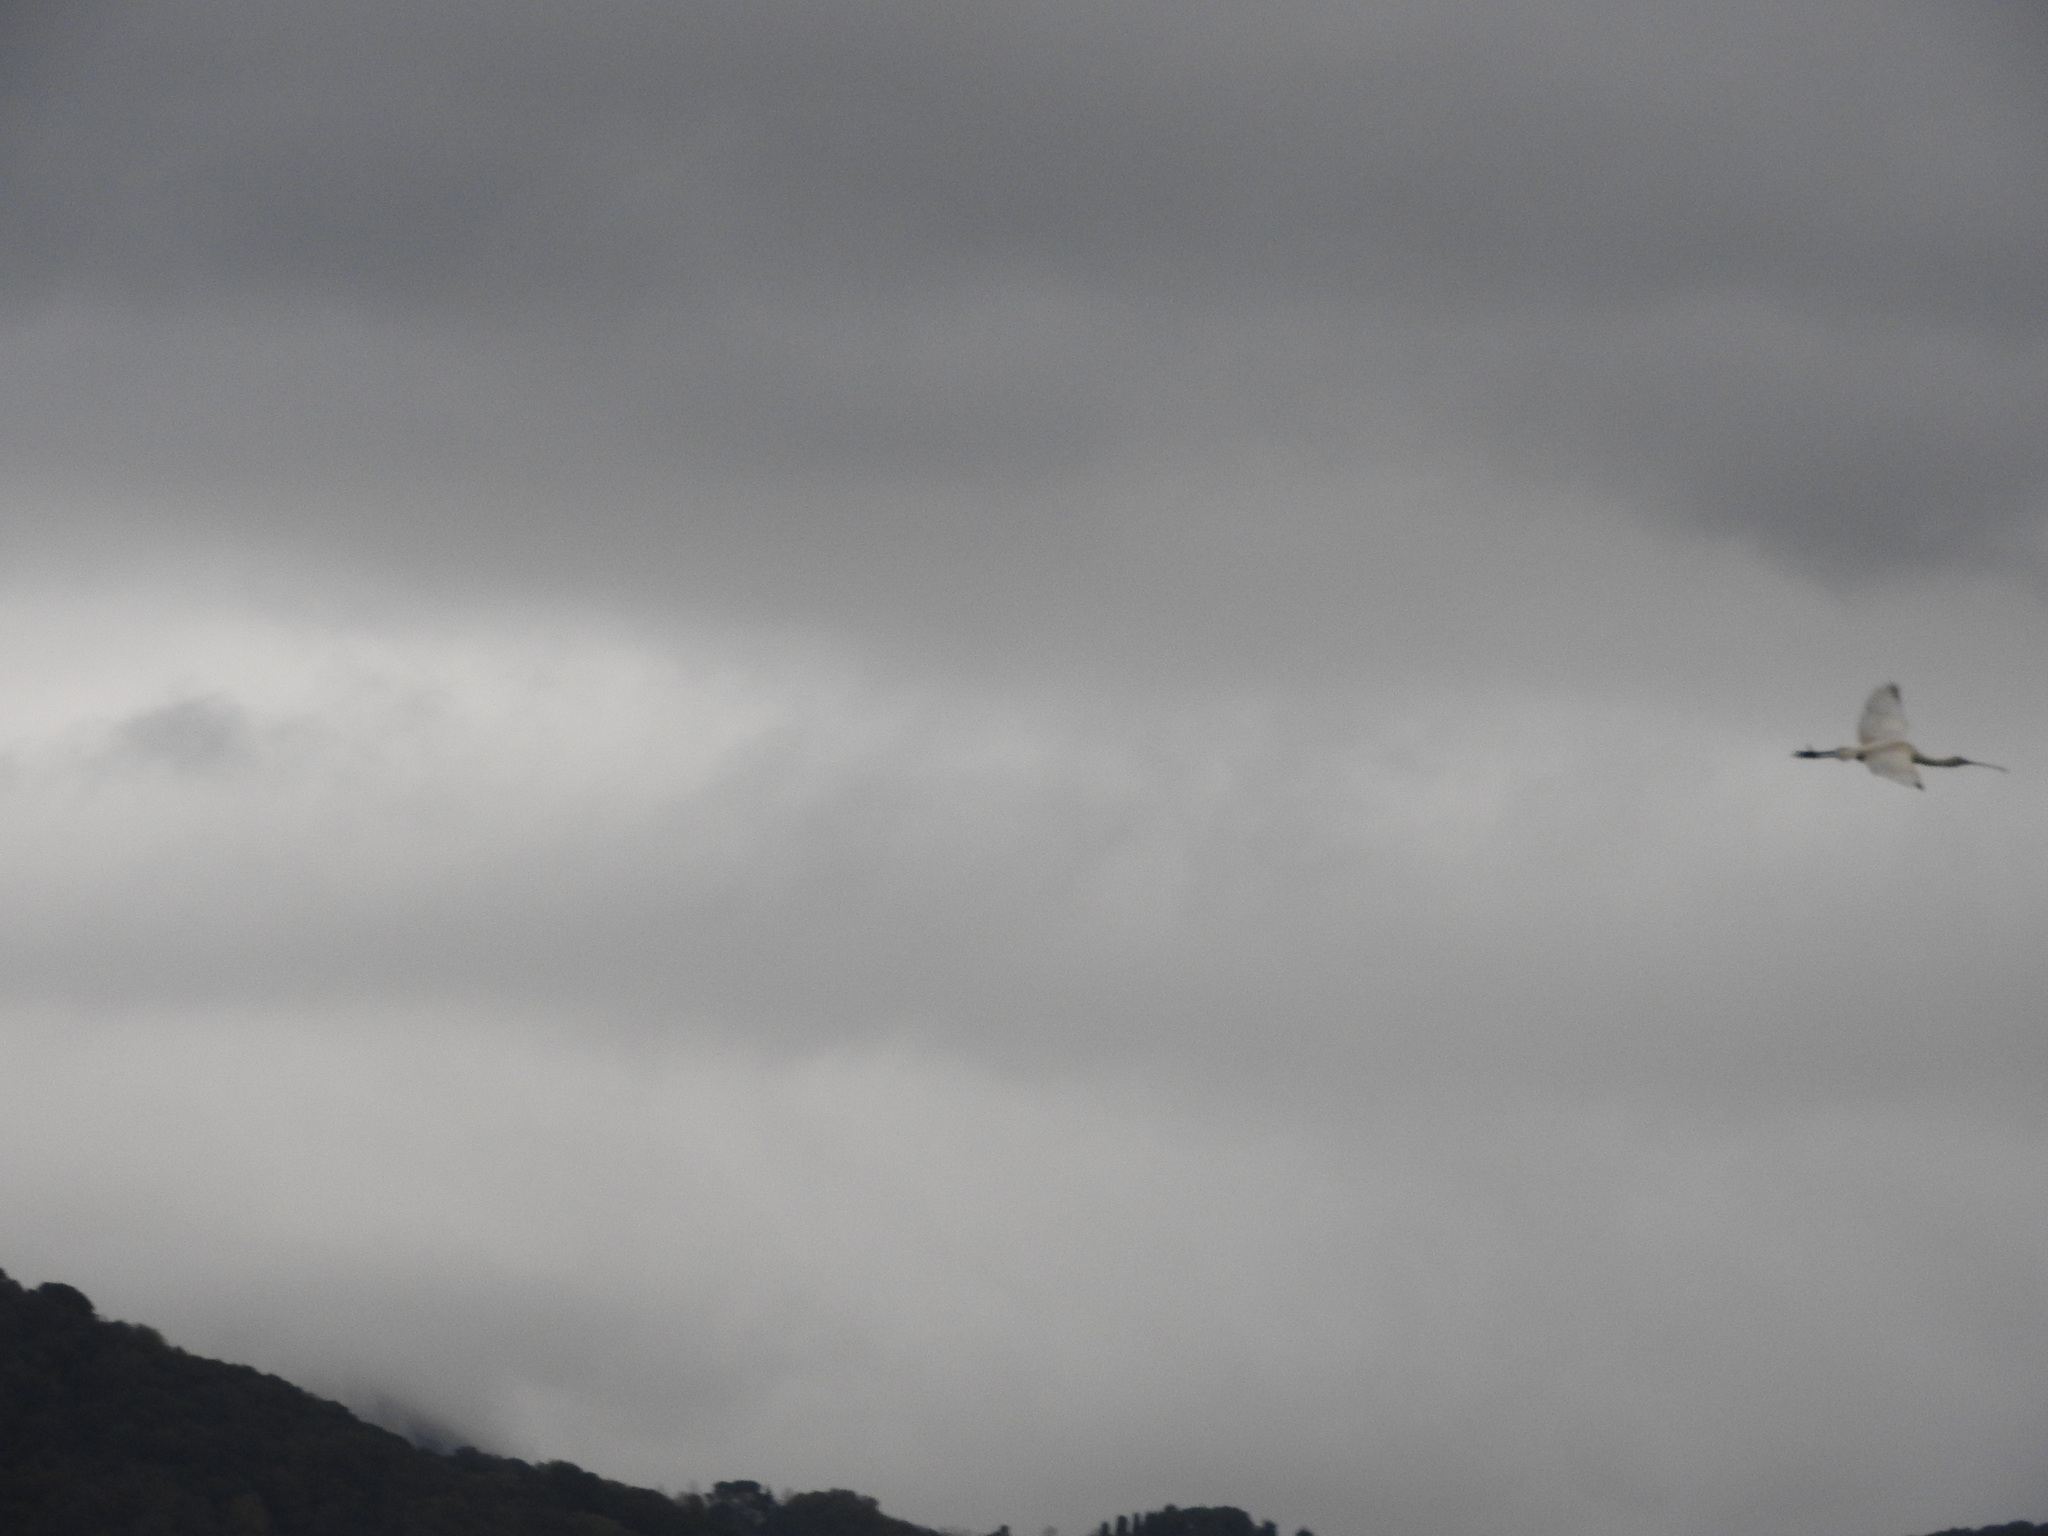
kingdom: Animalia
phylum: Chordata
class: Aves
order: Pelecaniformes
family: Threskiornithidae
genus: Platalea
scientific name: Platalea leucorodia
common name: Eurasian spoonbill
